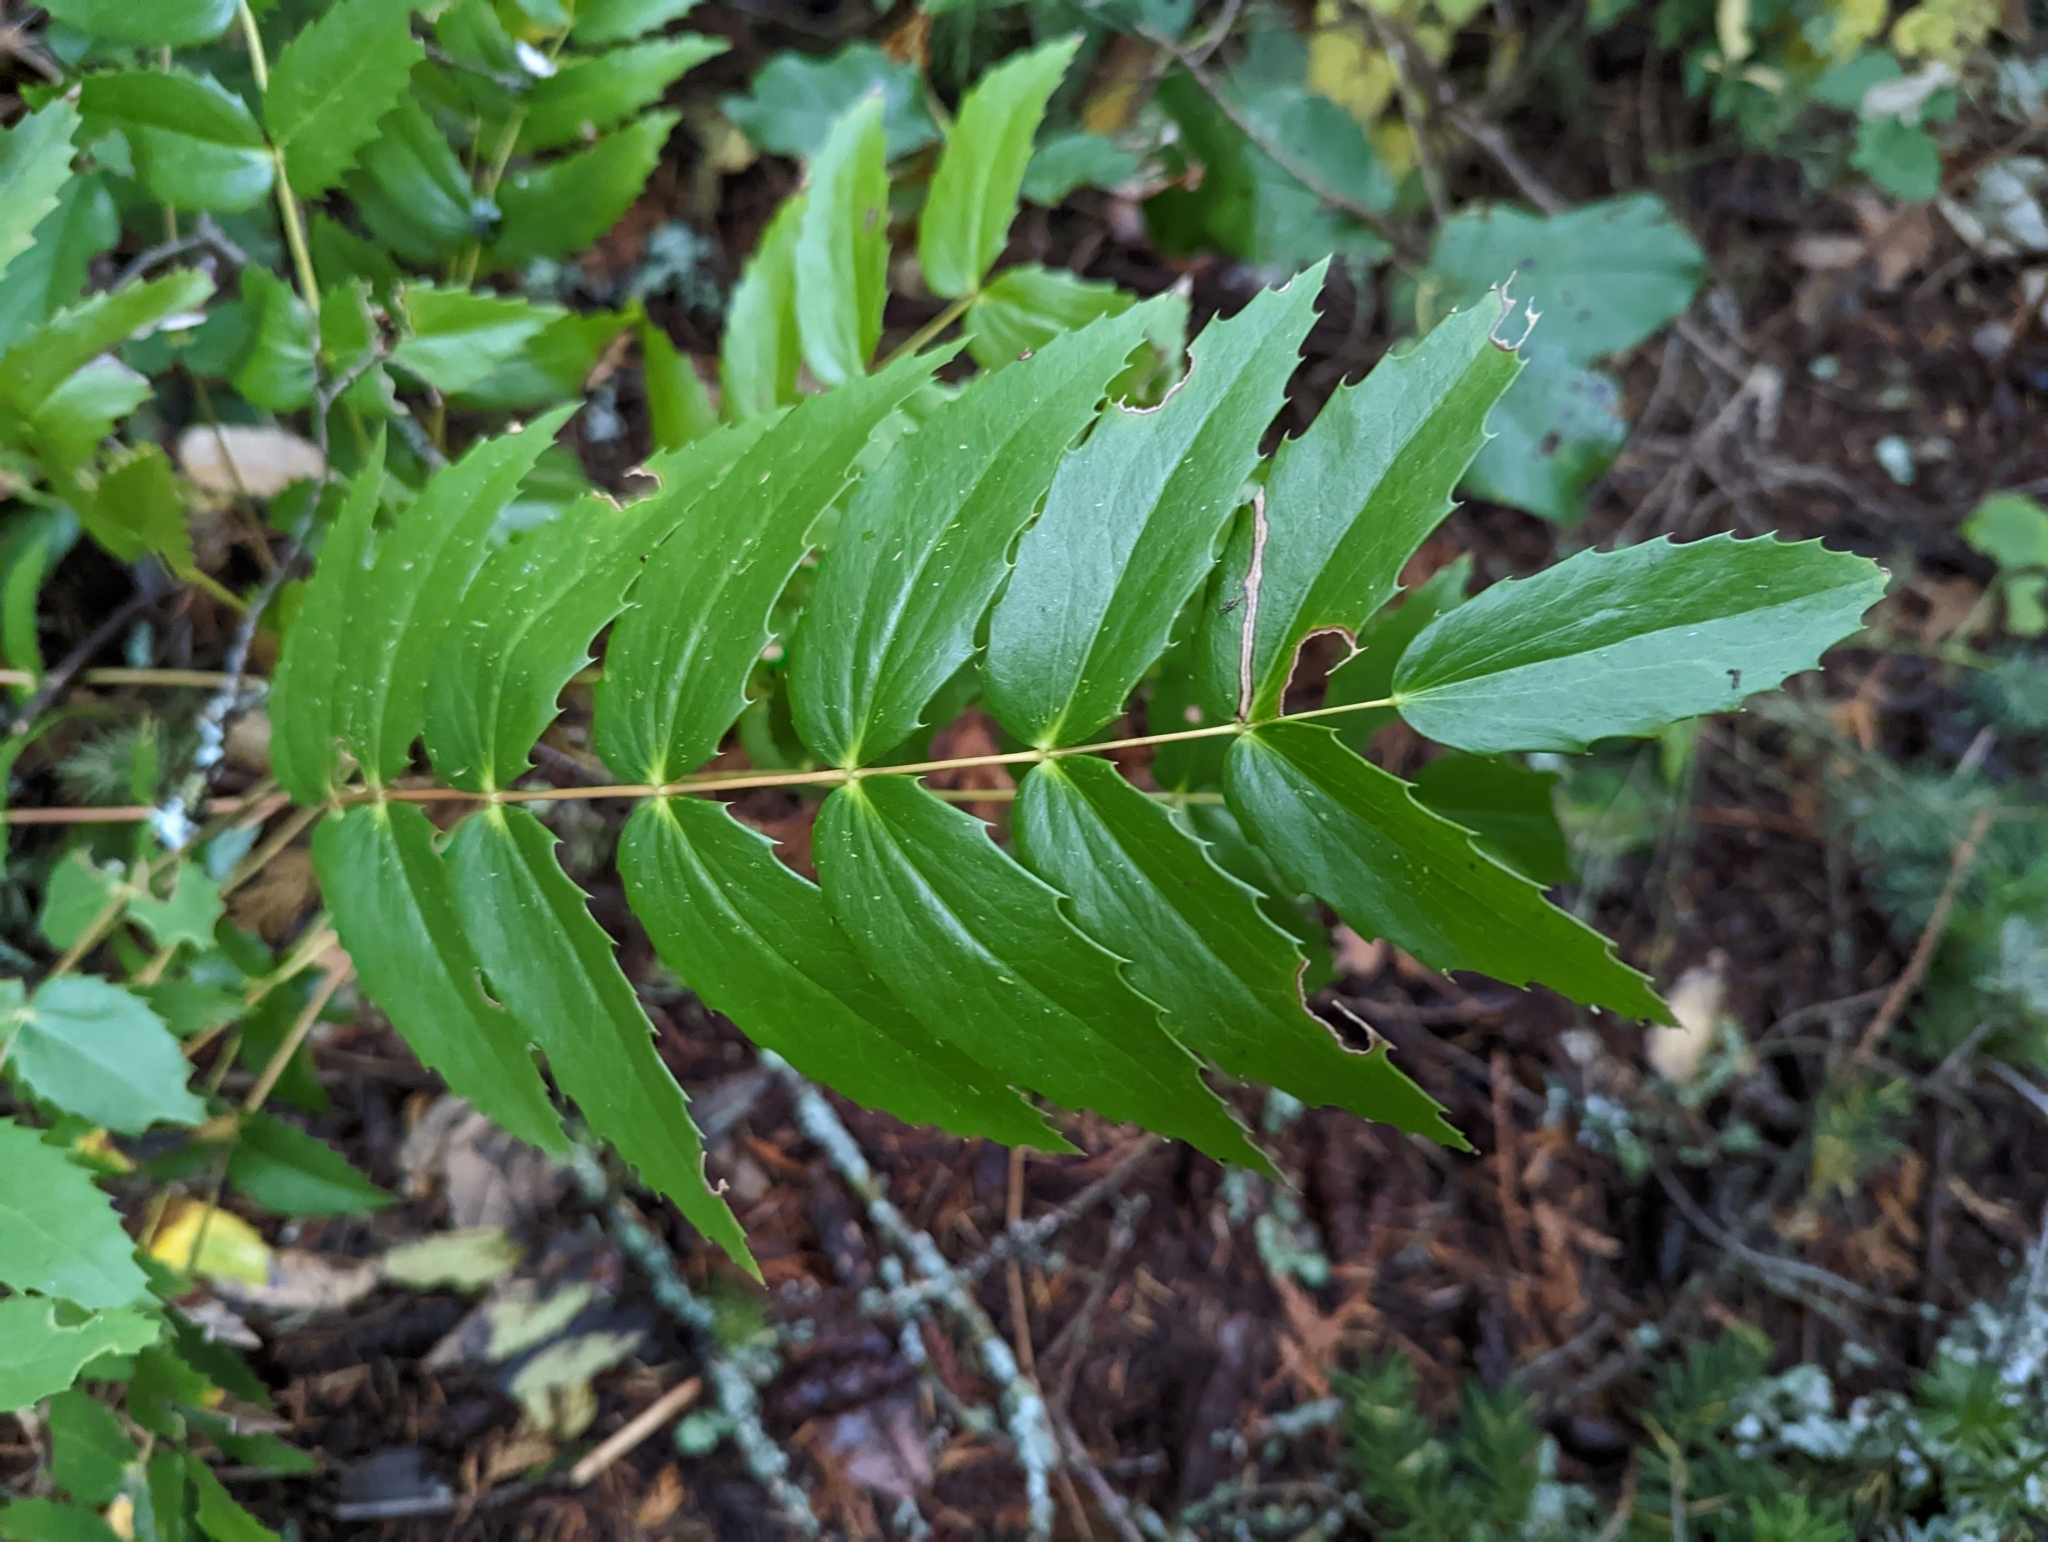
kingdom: Plantae
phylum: Tracheophyta
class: Magnoliopsida
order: Ranunculales
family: Berberidaceae
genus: Mahonia
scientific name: Mahonia nervosa
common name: Cascade oregon-grape
